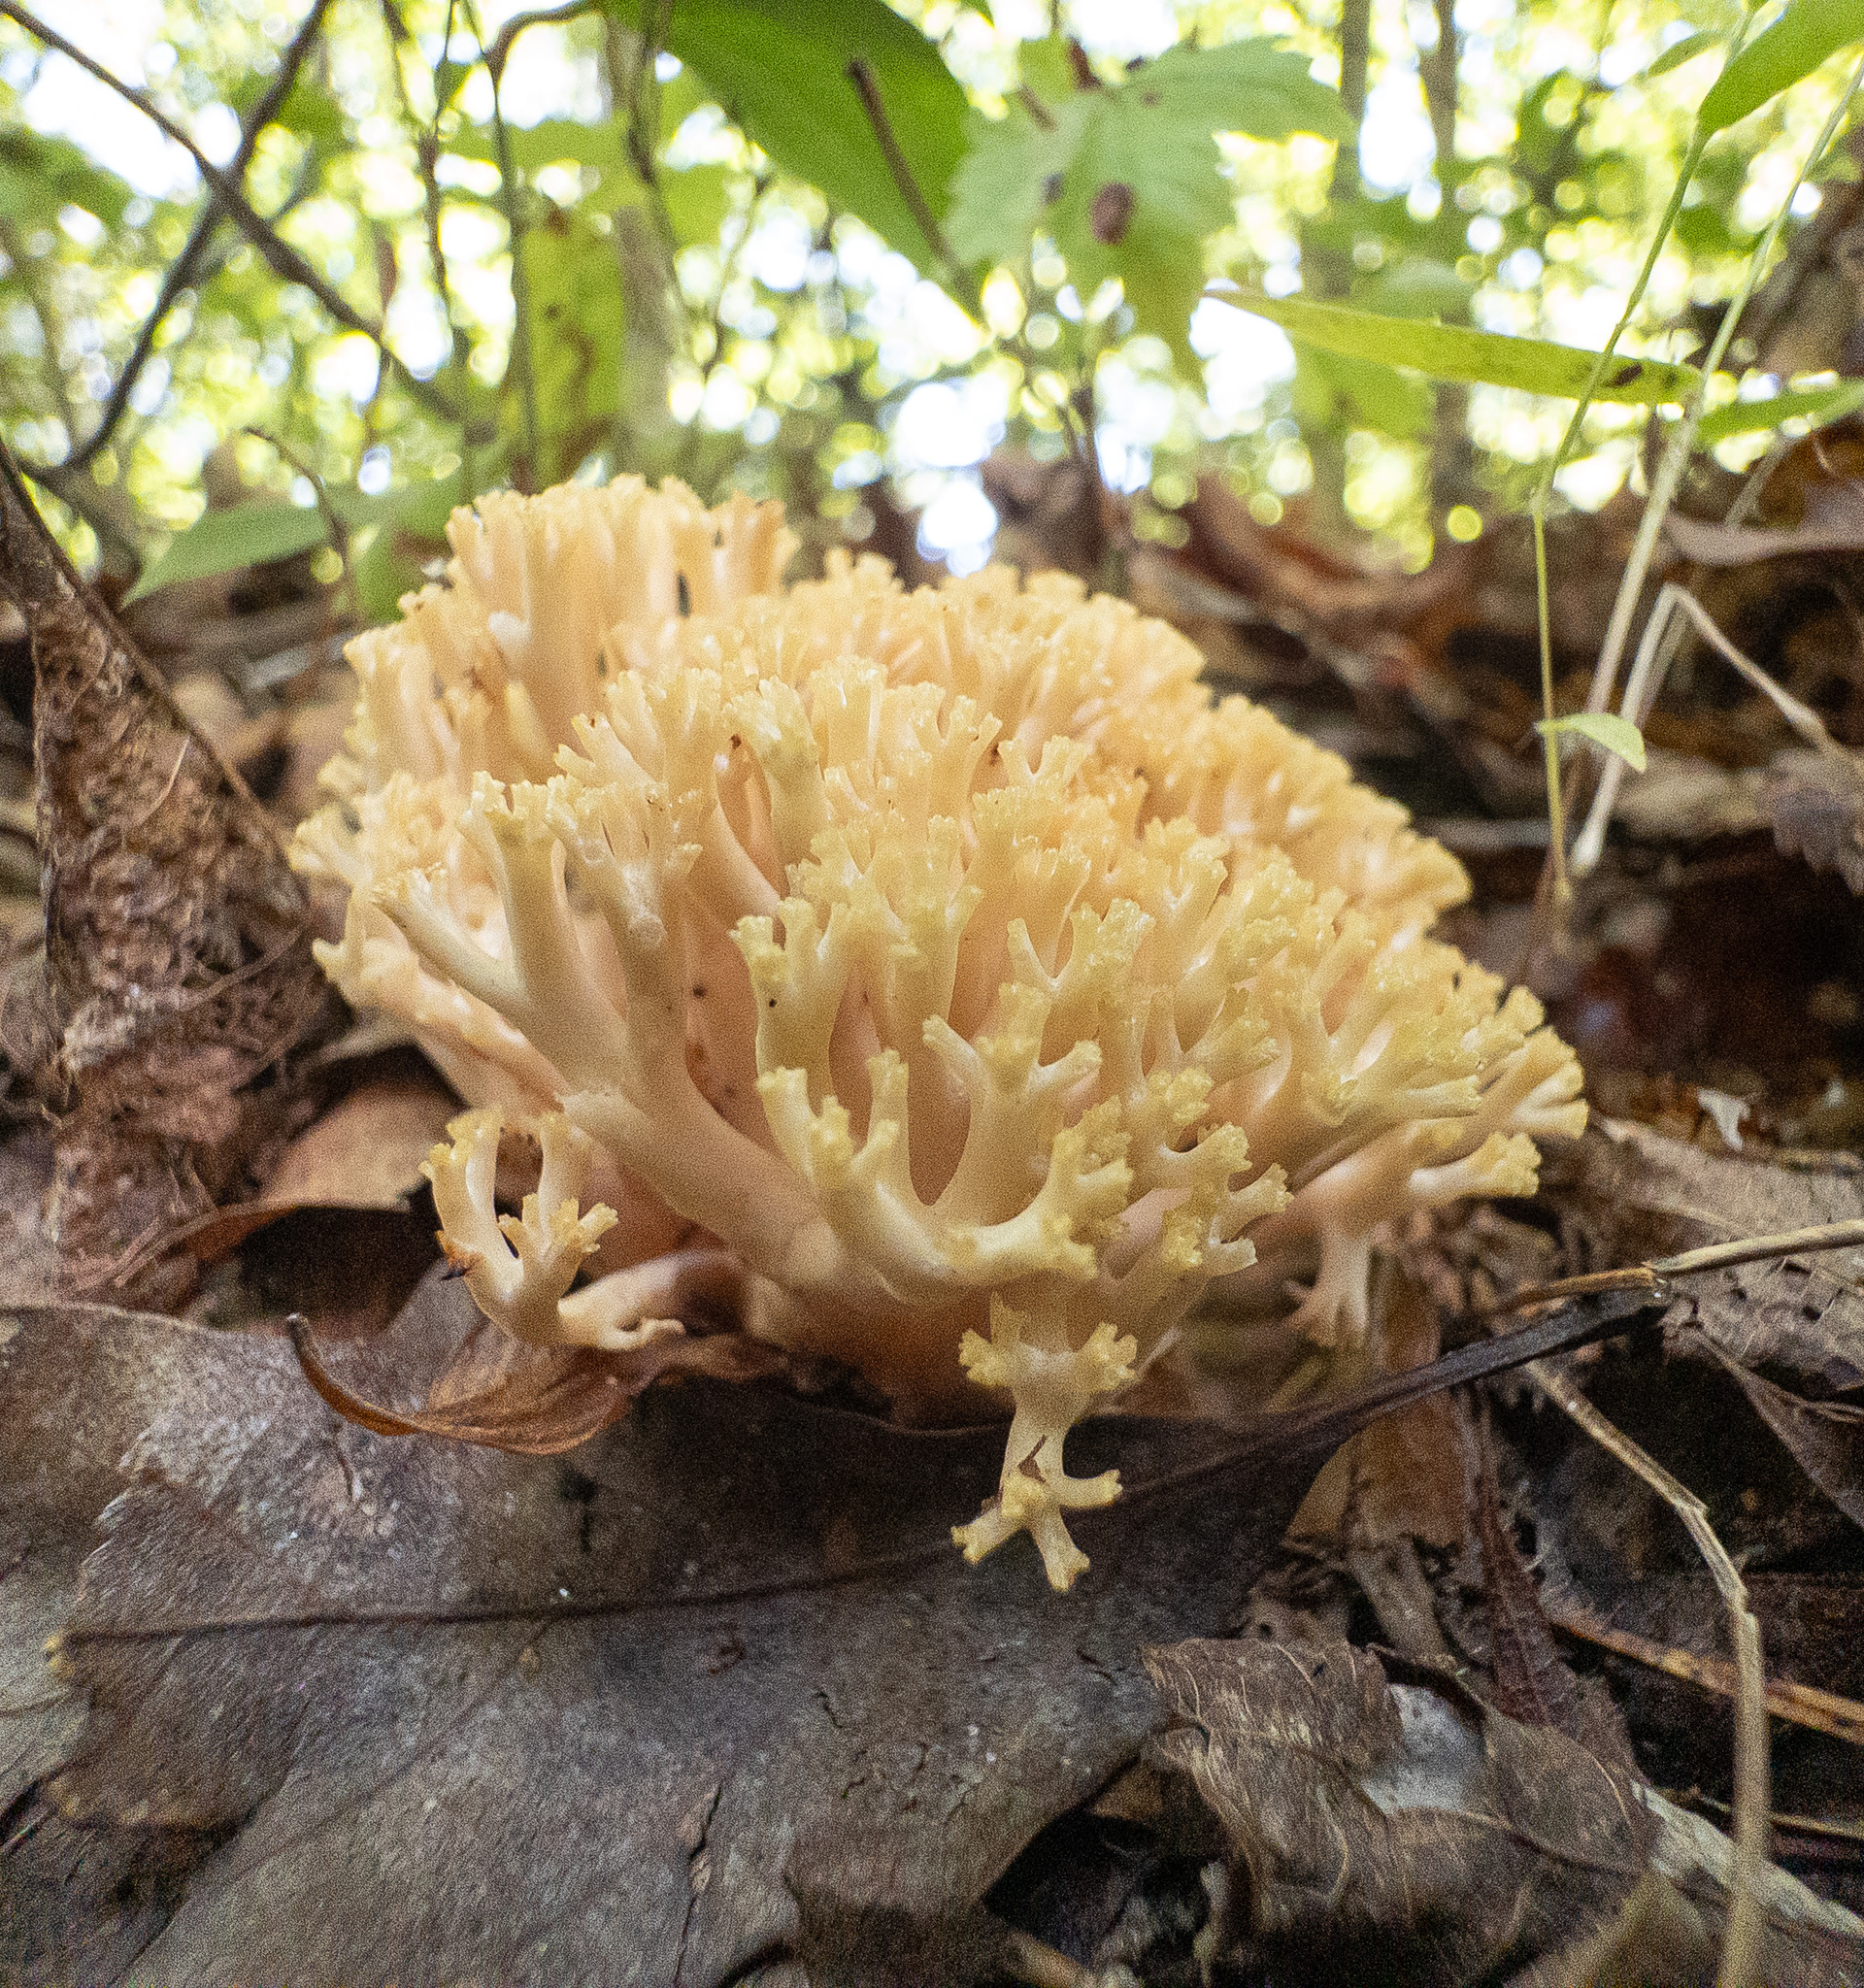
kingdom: Fungi
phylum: Basidiomycota
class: Agaricomycetes
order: Gomphales
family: Gomphaceae
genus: Ramaria
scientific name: Ramaria xanthosperma
